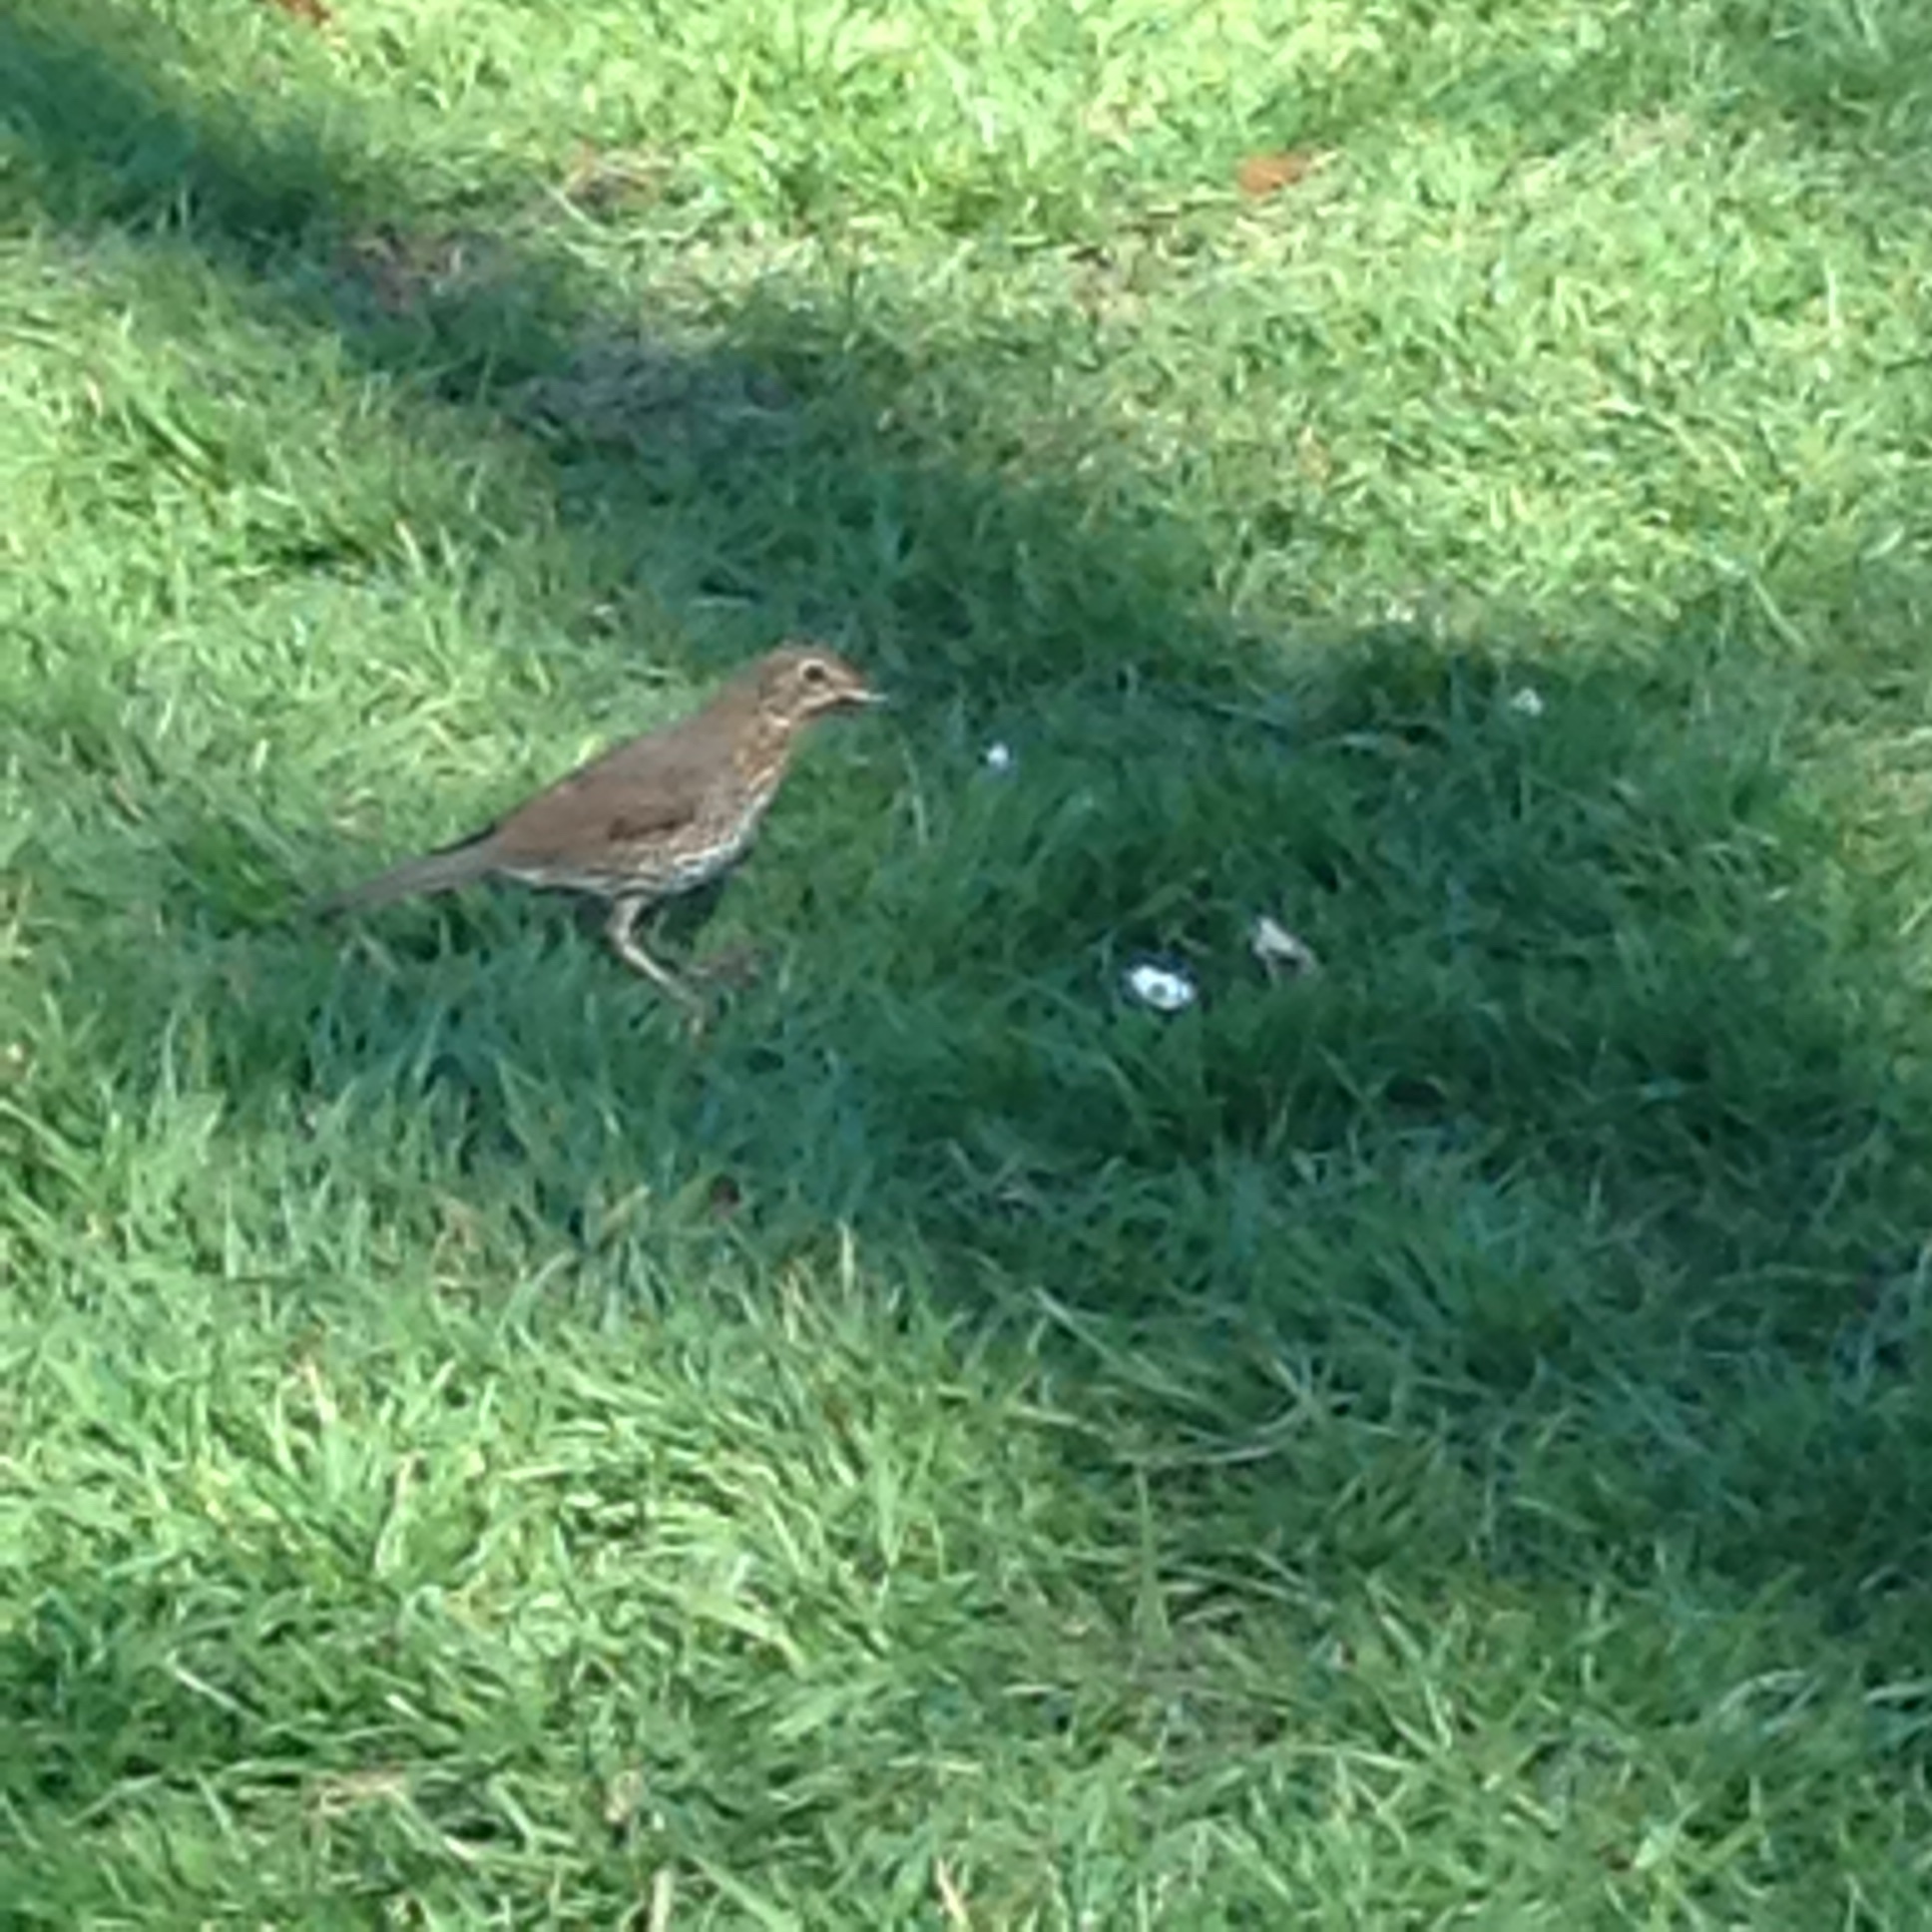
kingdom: Animalia
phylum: Chordata
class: Aves
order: Passeriformes
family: Turdidae
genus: Turdus
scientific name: Turdus philomelos
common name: Song thrush
